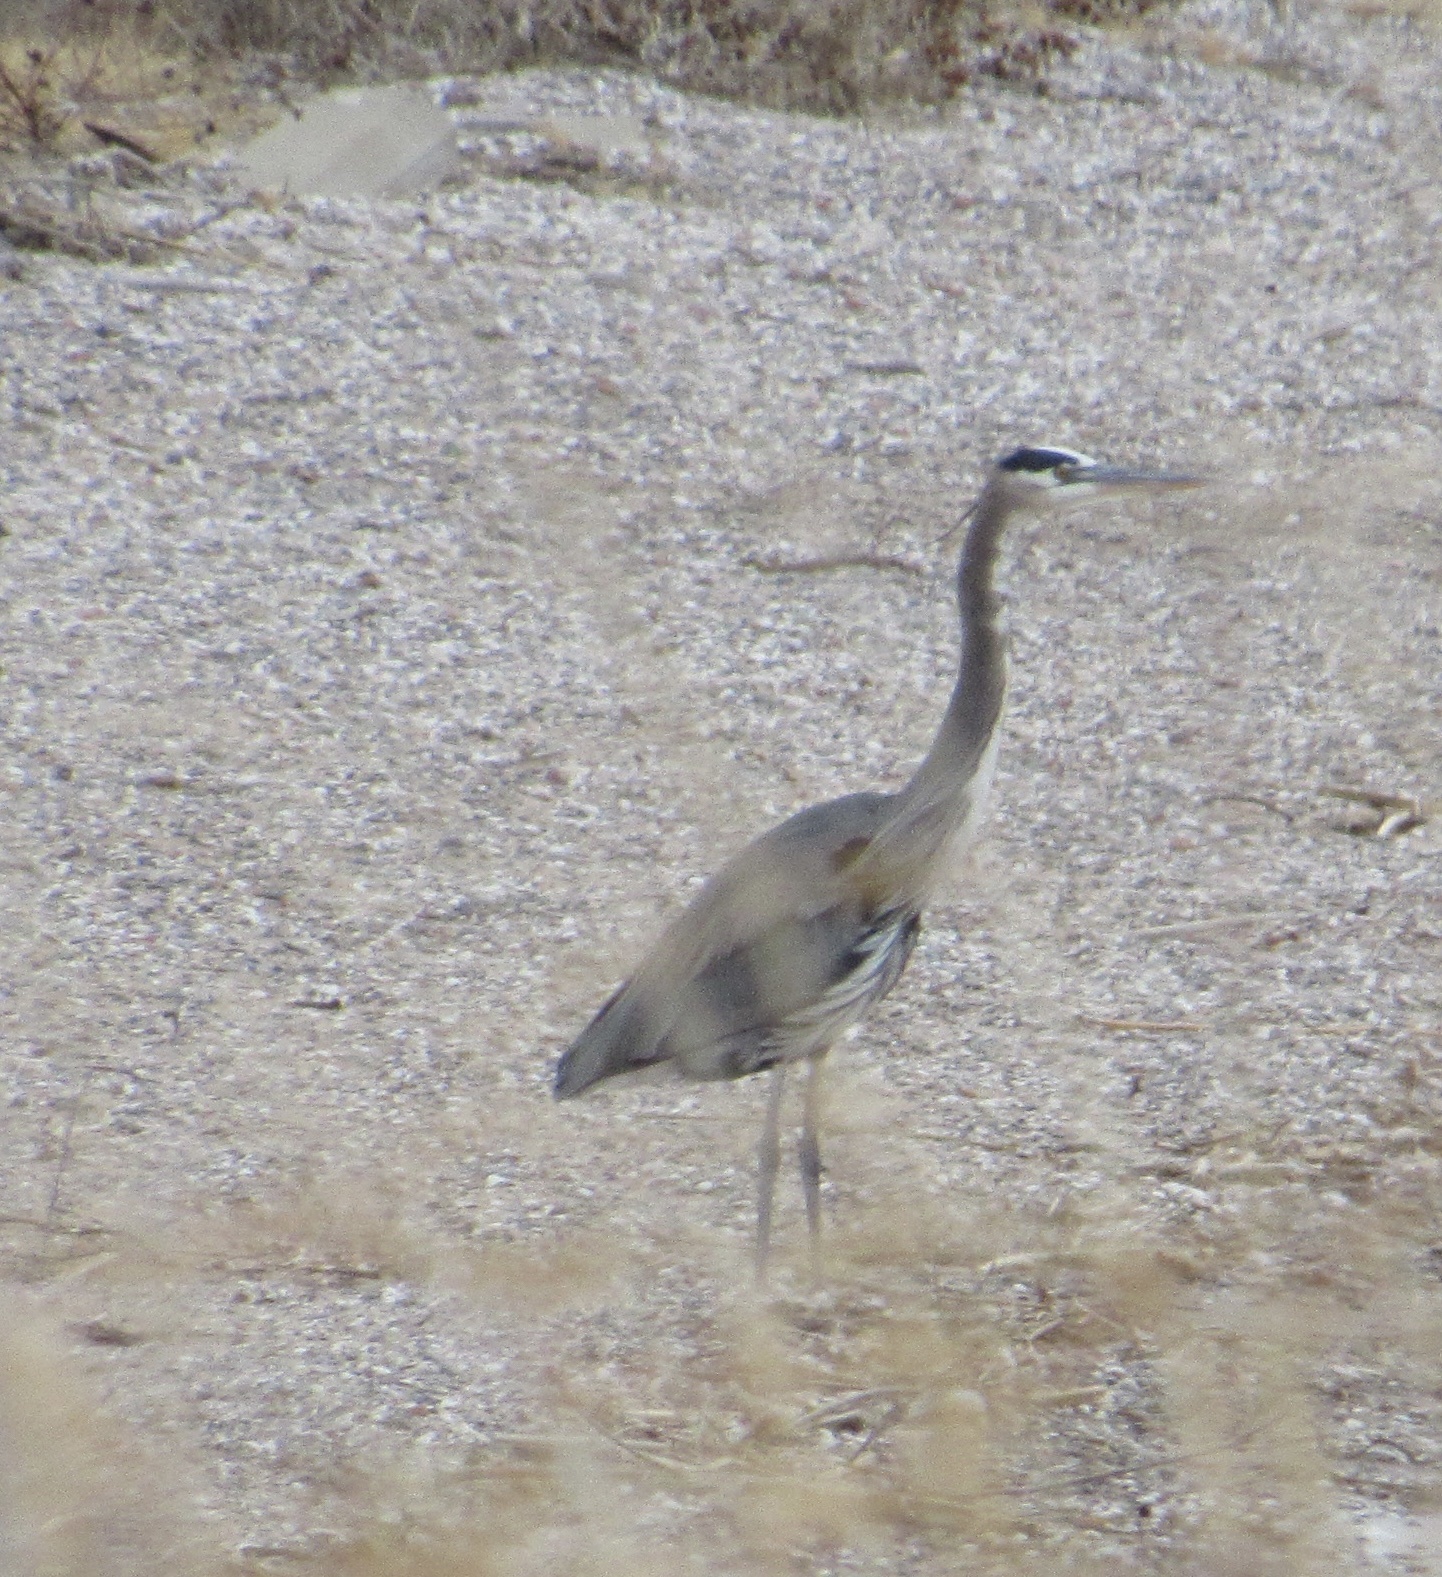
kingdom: Animalia
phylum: Chordata
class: Aves
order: Pelecaniformes
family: Ardeidae
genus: Ardea
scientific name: Ardea herodias
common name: Great blue heron
